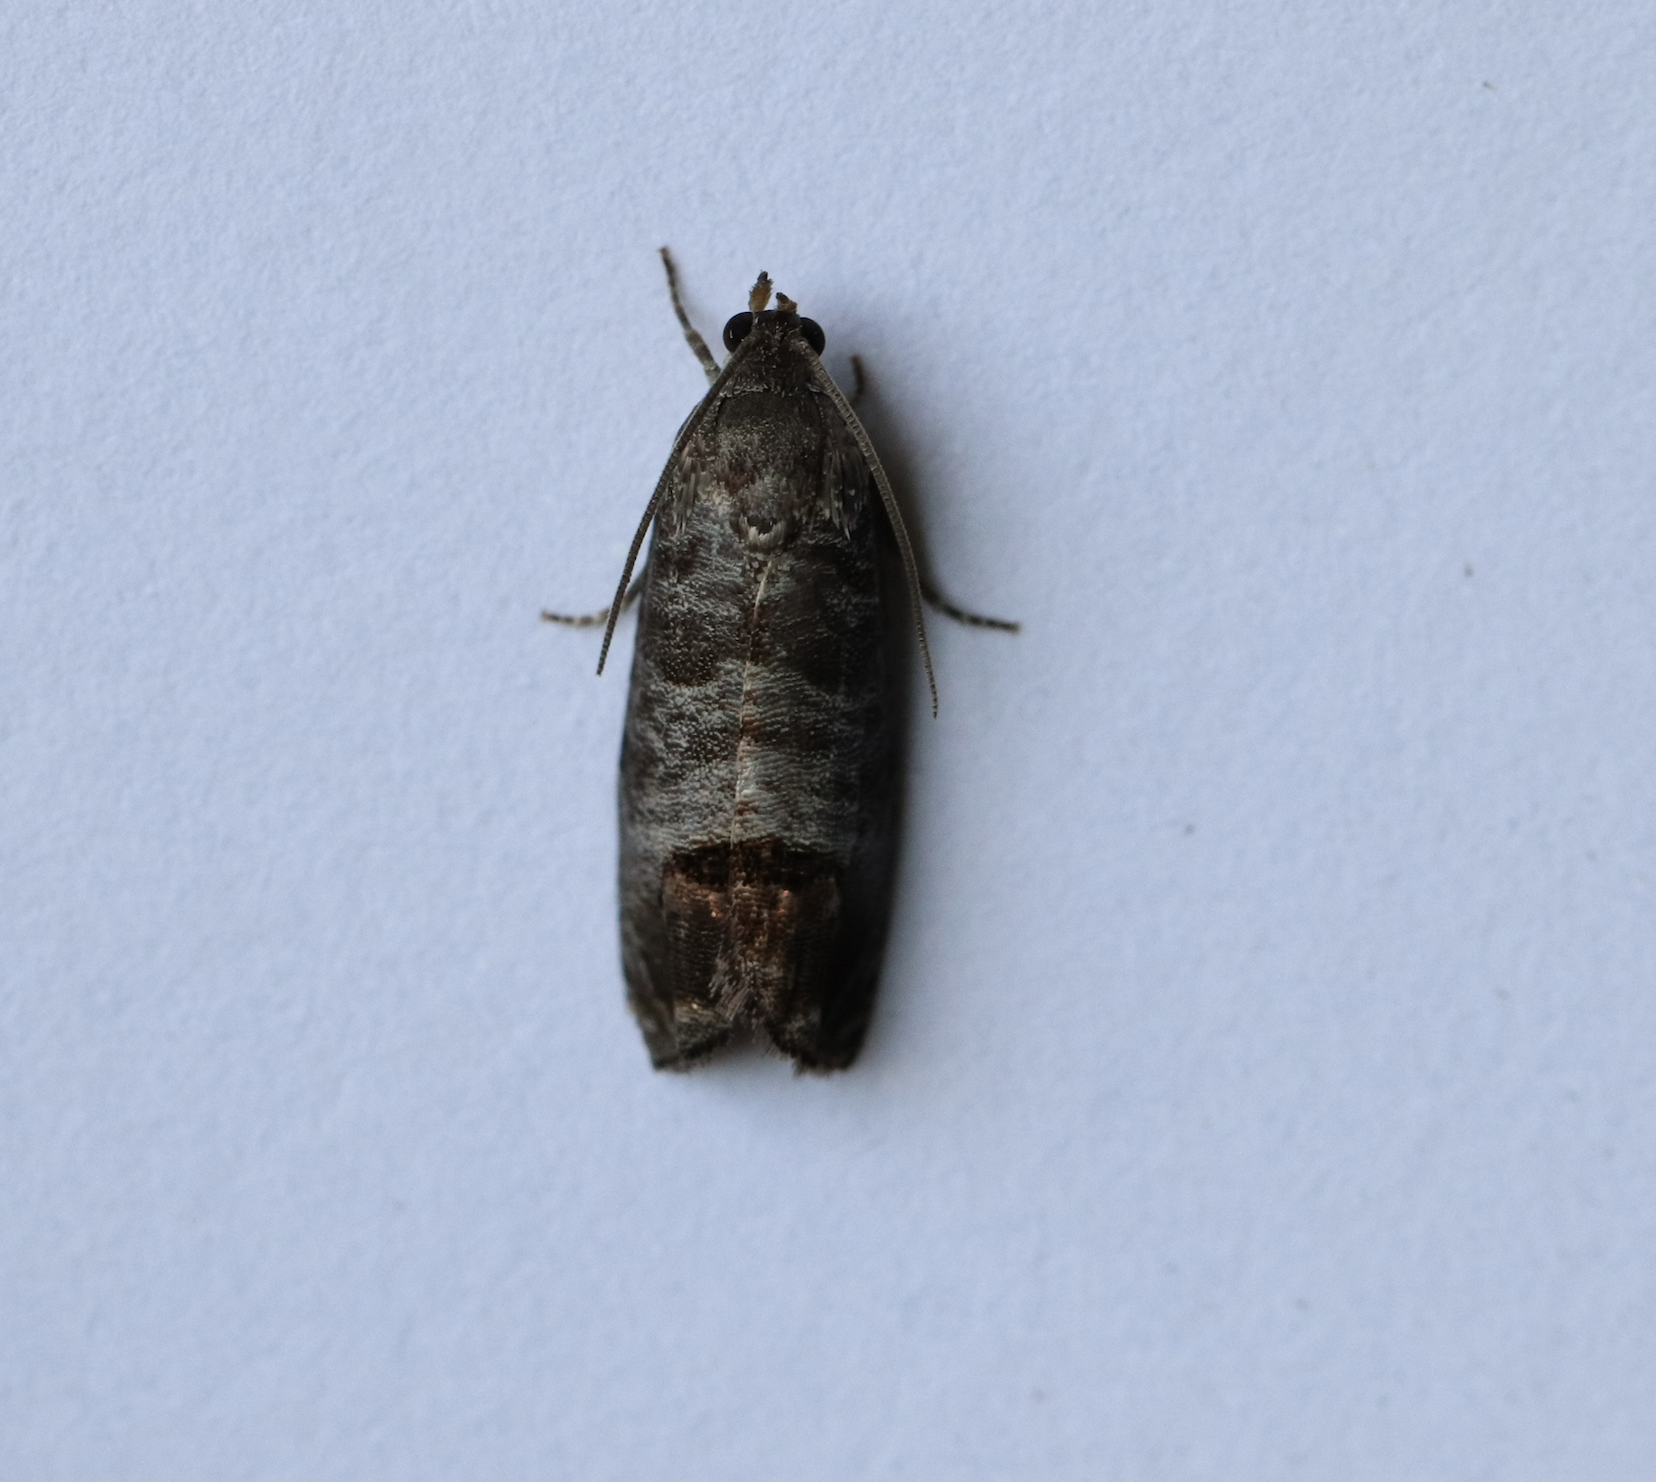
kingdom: Animalia
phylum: Arthropoda
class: Insecta
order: Lepidoptera
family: Tortricidae
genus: Cydia
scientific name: Cydia pomonella
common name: Codling moth
